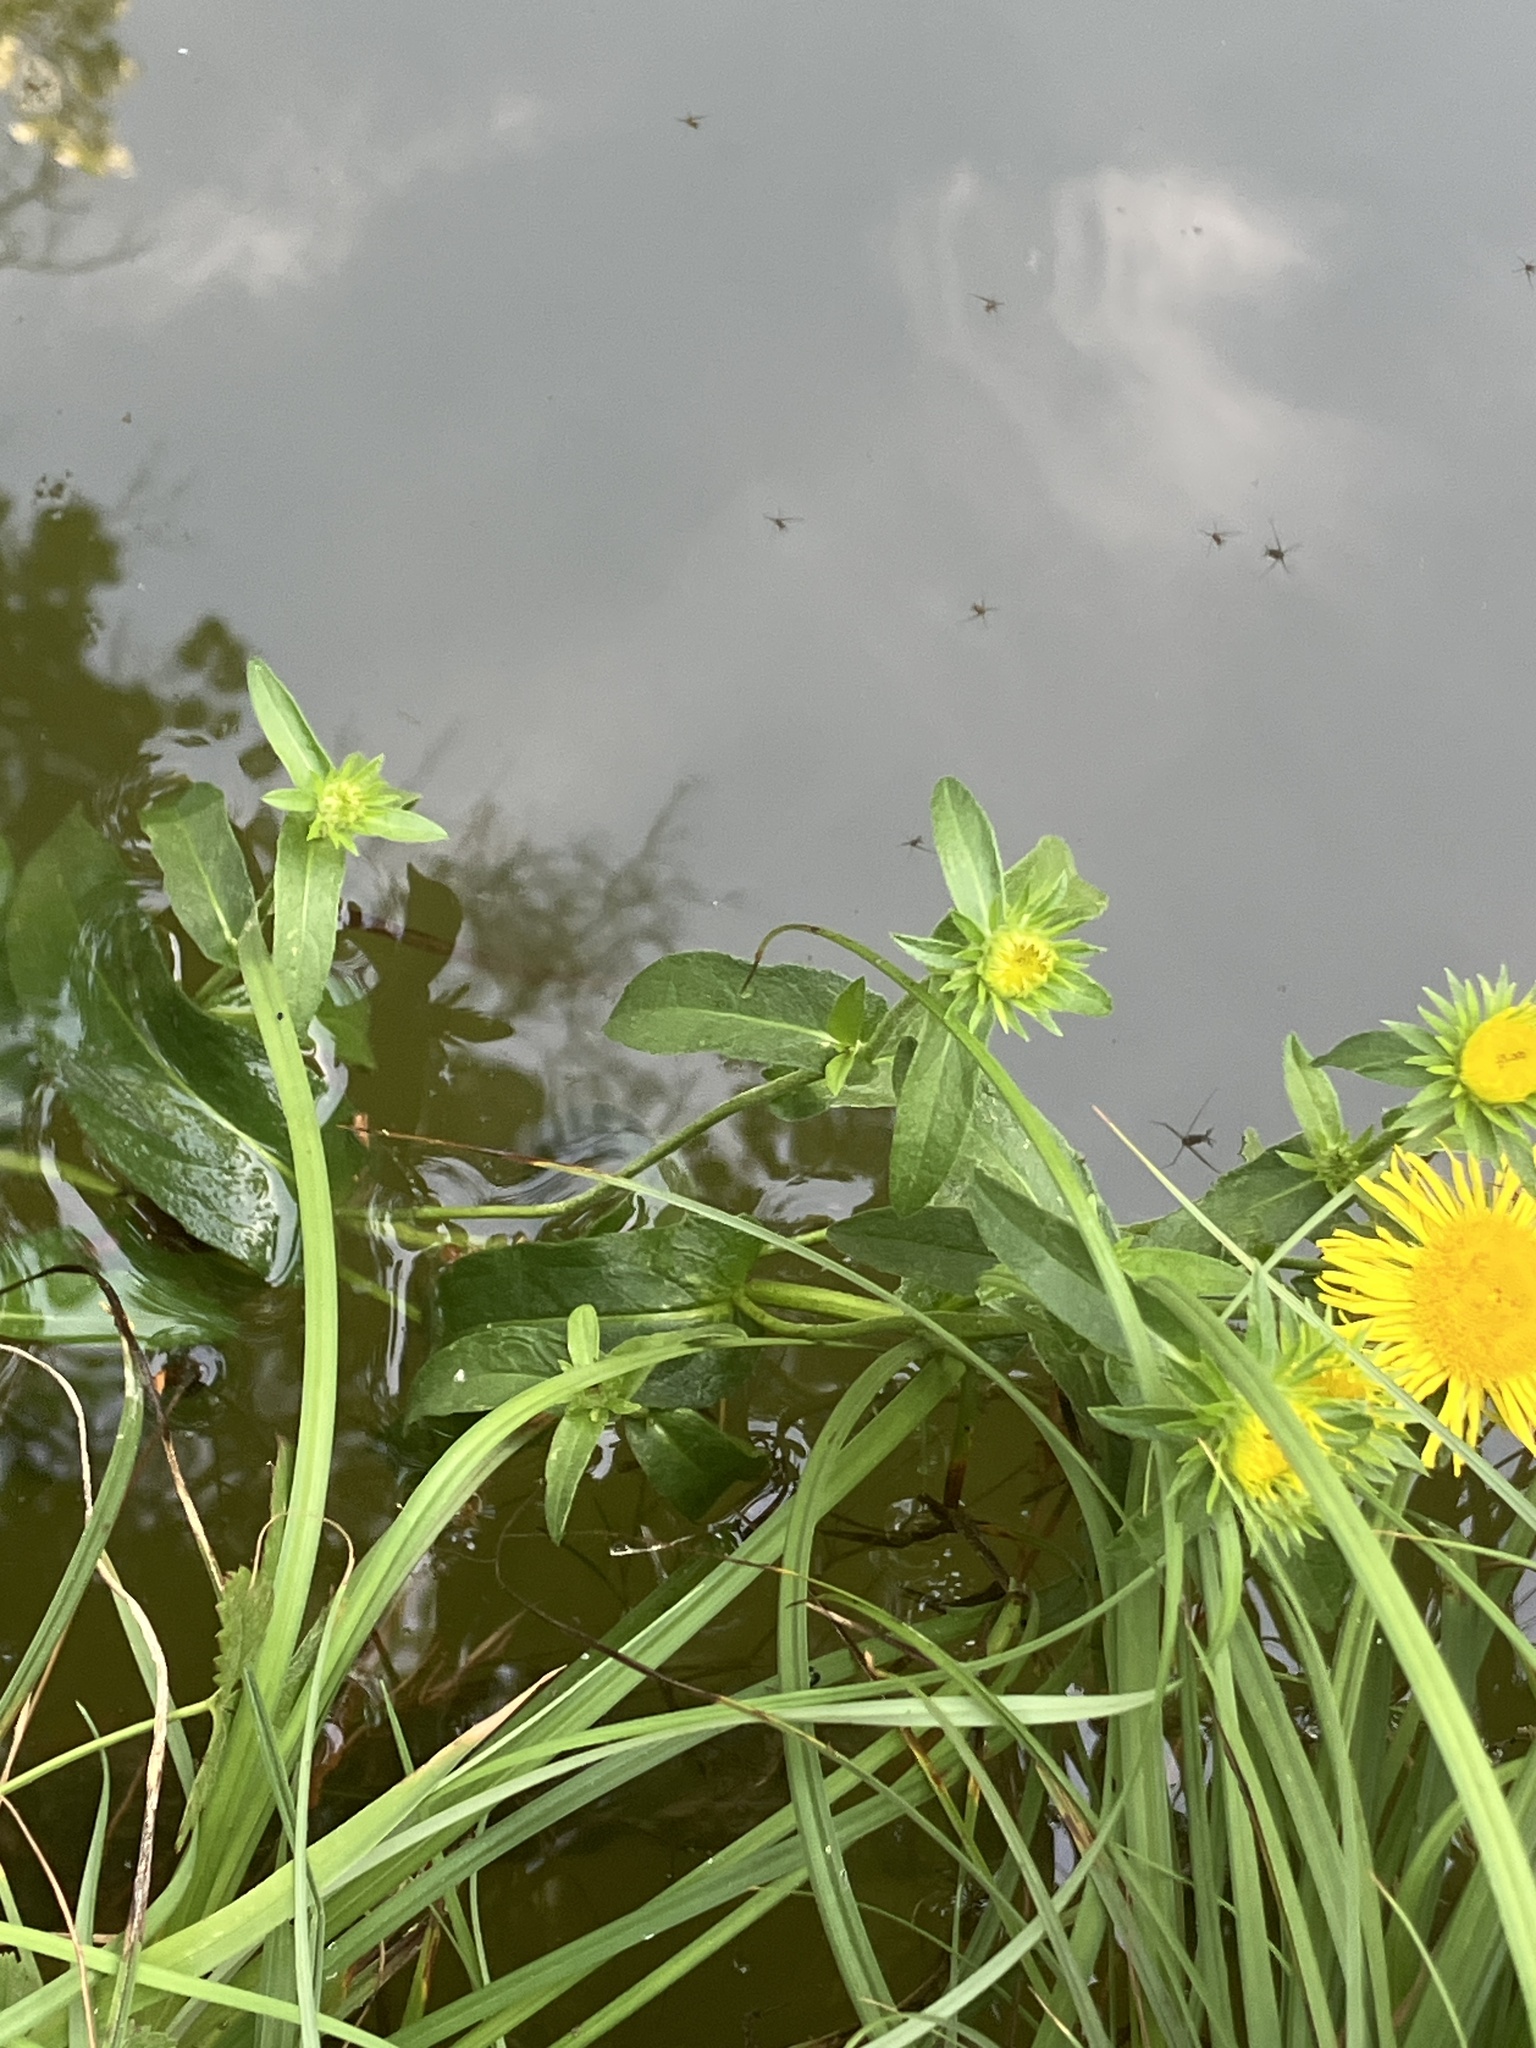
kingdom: Plantae
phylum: Tracheophyta
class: Magnoliopsida
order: Asterales
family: Asteraceae
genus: Pentanema
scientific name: Pentanema britannicum
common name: British elecampane
